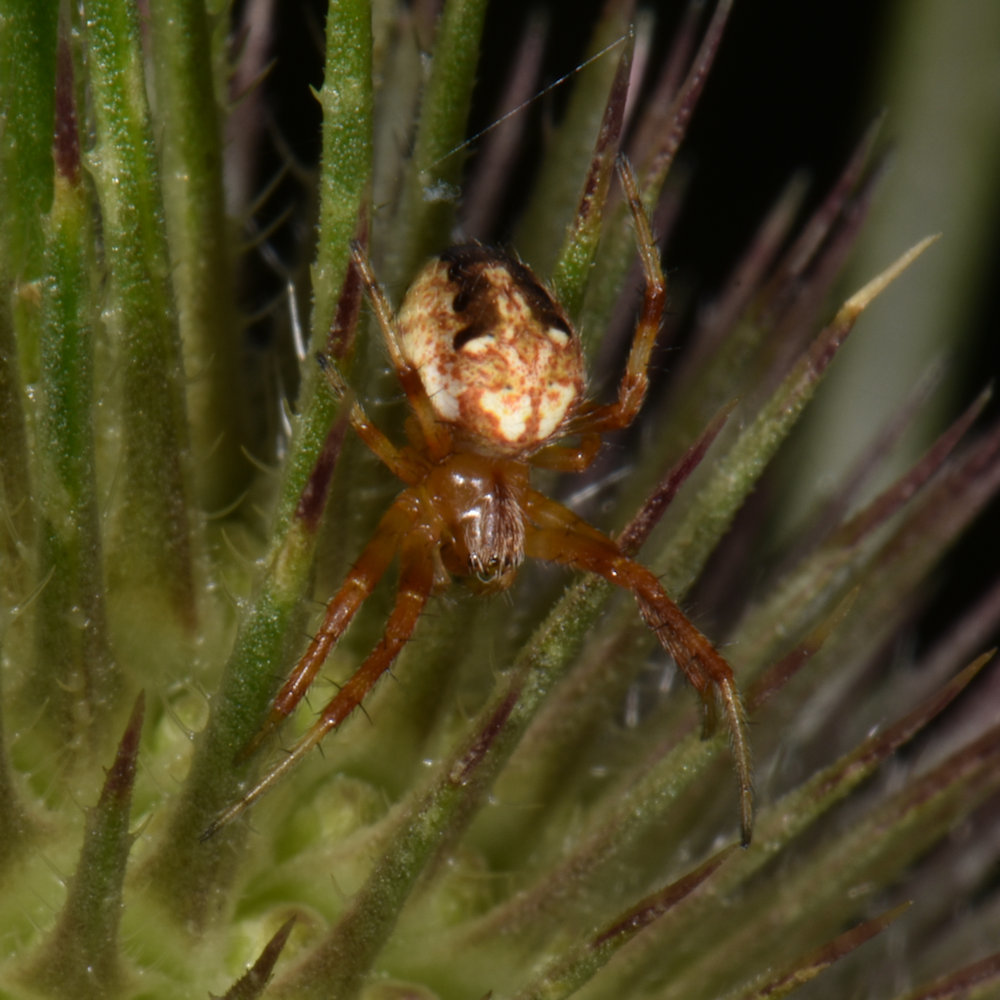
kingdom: Animalia
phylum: Arthropoda
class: Arachnida
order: Araneae
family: Araneidae
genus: Neoscona
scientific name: Neoscona arabesca
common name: Orb weavers
